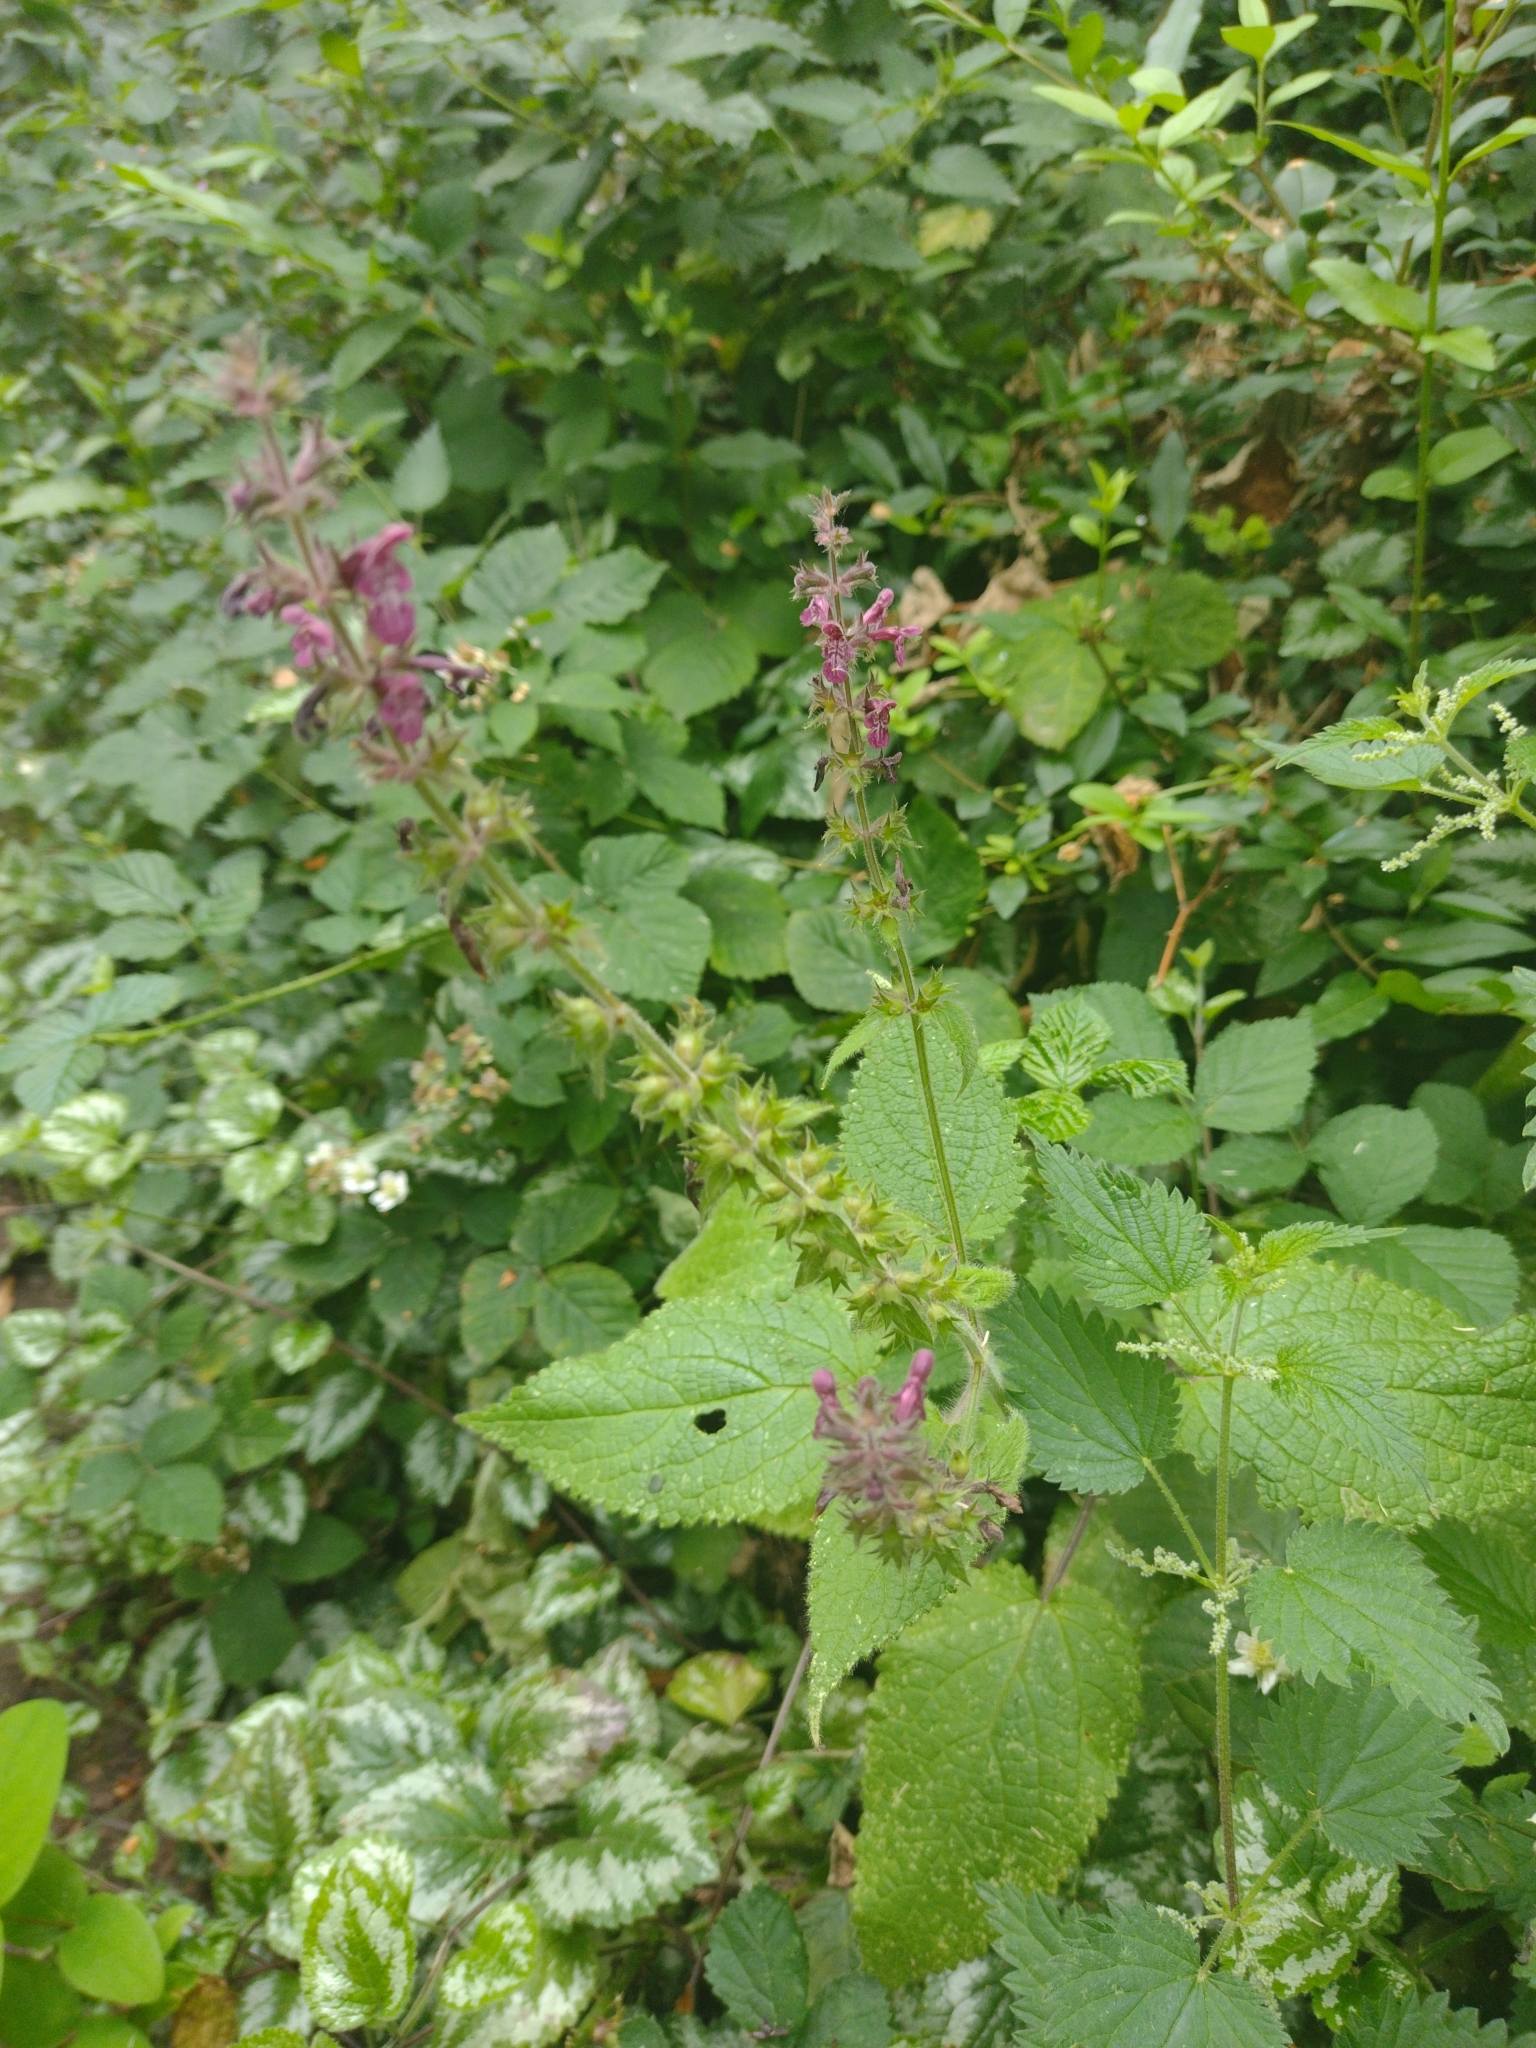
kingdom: Plantae
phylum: Tracheophyta
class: Magnoliopsida
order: Lamiales
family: Lamiaceae
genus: Stachys
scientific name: Stachys sylvatica
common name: Hedge woundwort
